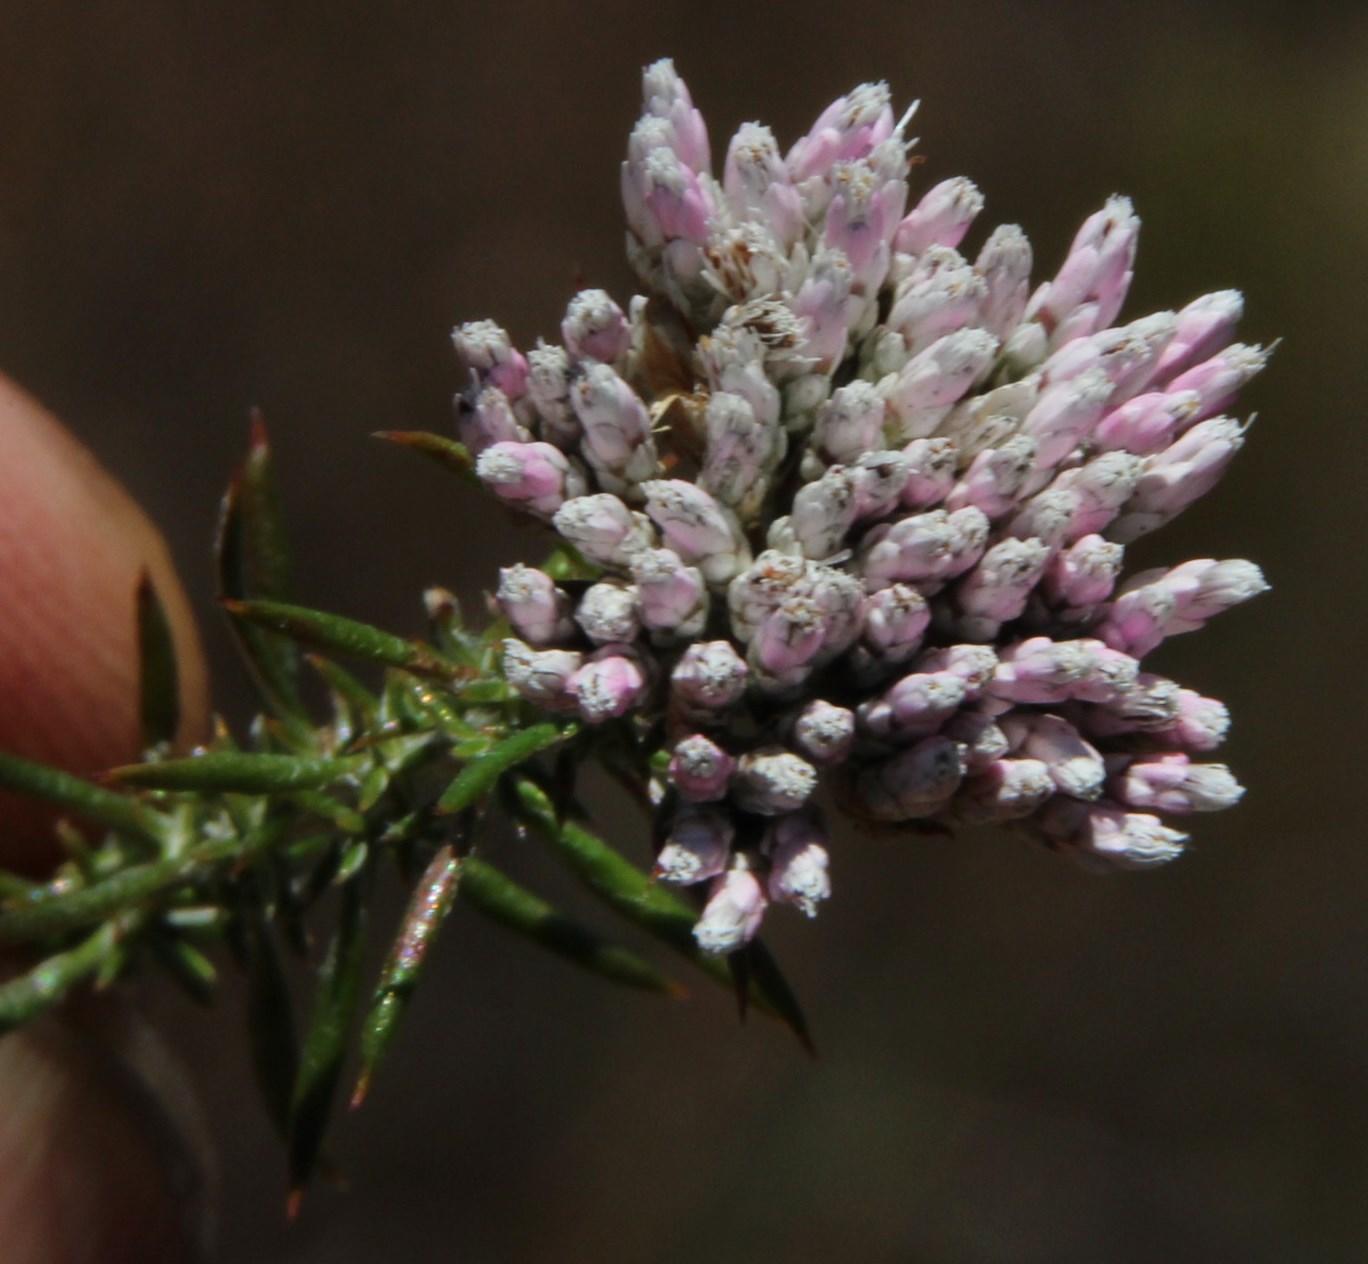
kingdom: Plantae
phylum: Tracheophyta
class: Magnoliopsida
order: Asterales
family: Asteraceae
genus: Metalasia
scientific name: Metalasia fastigiata
